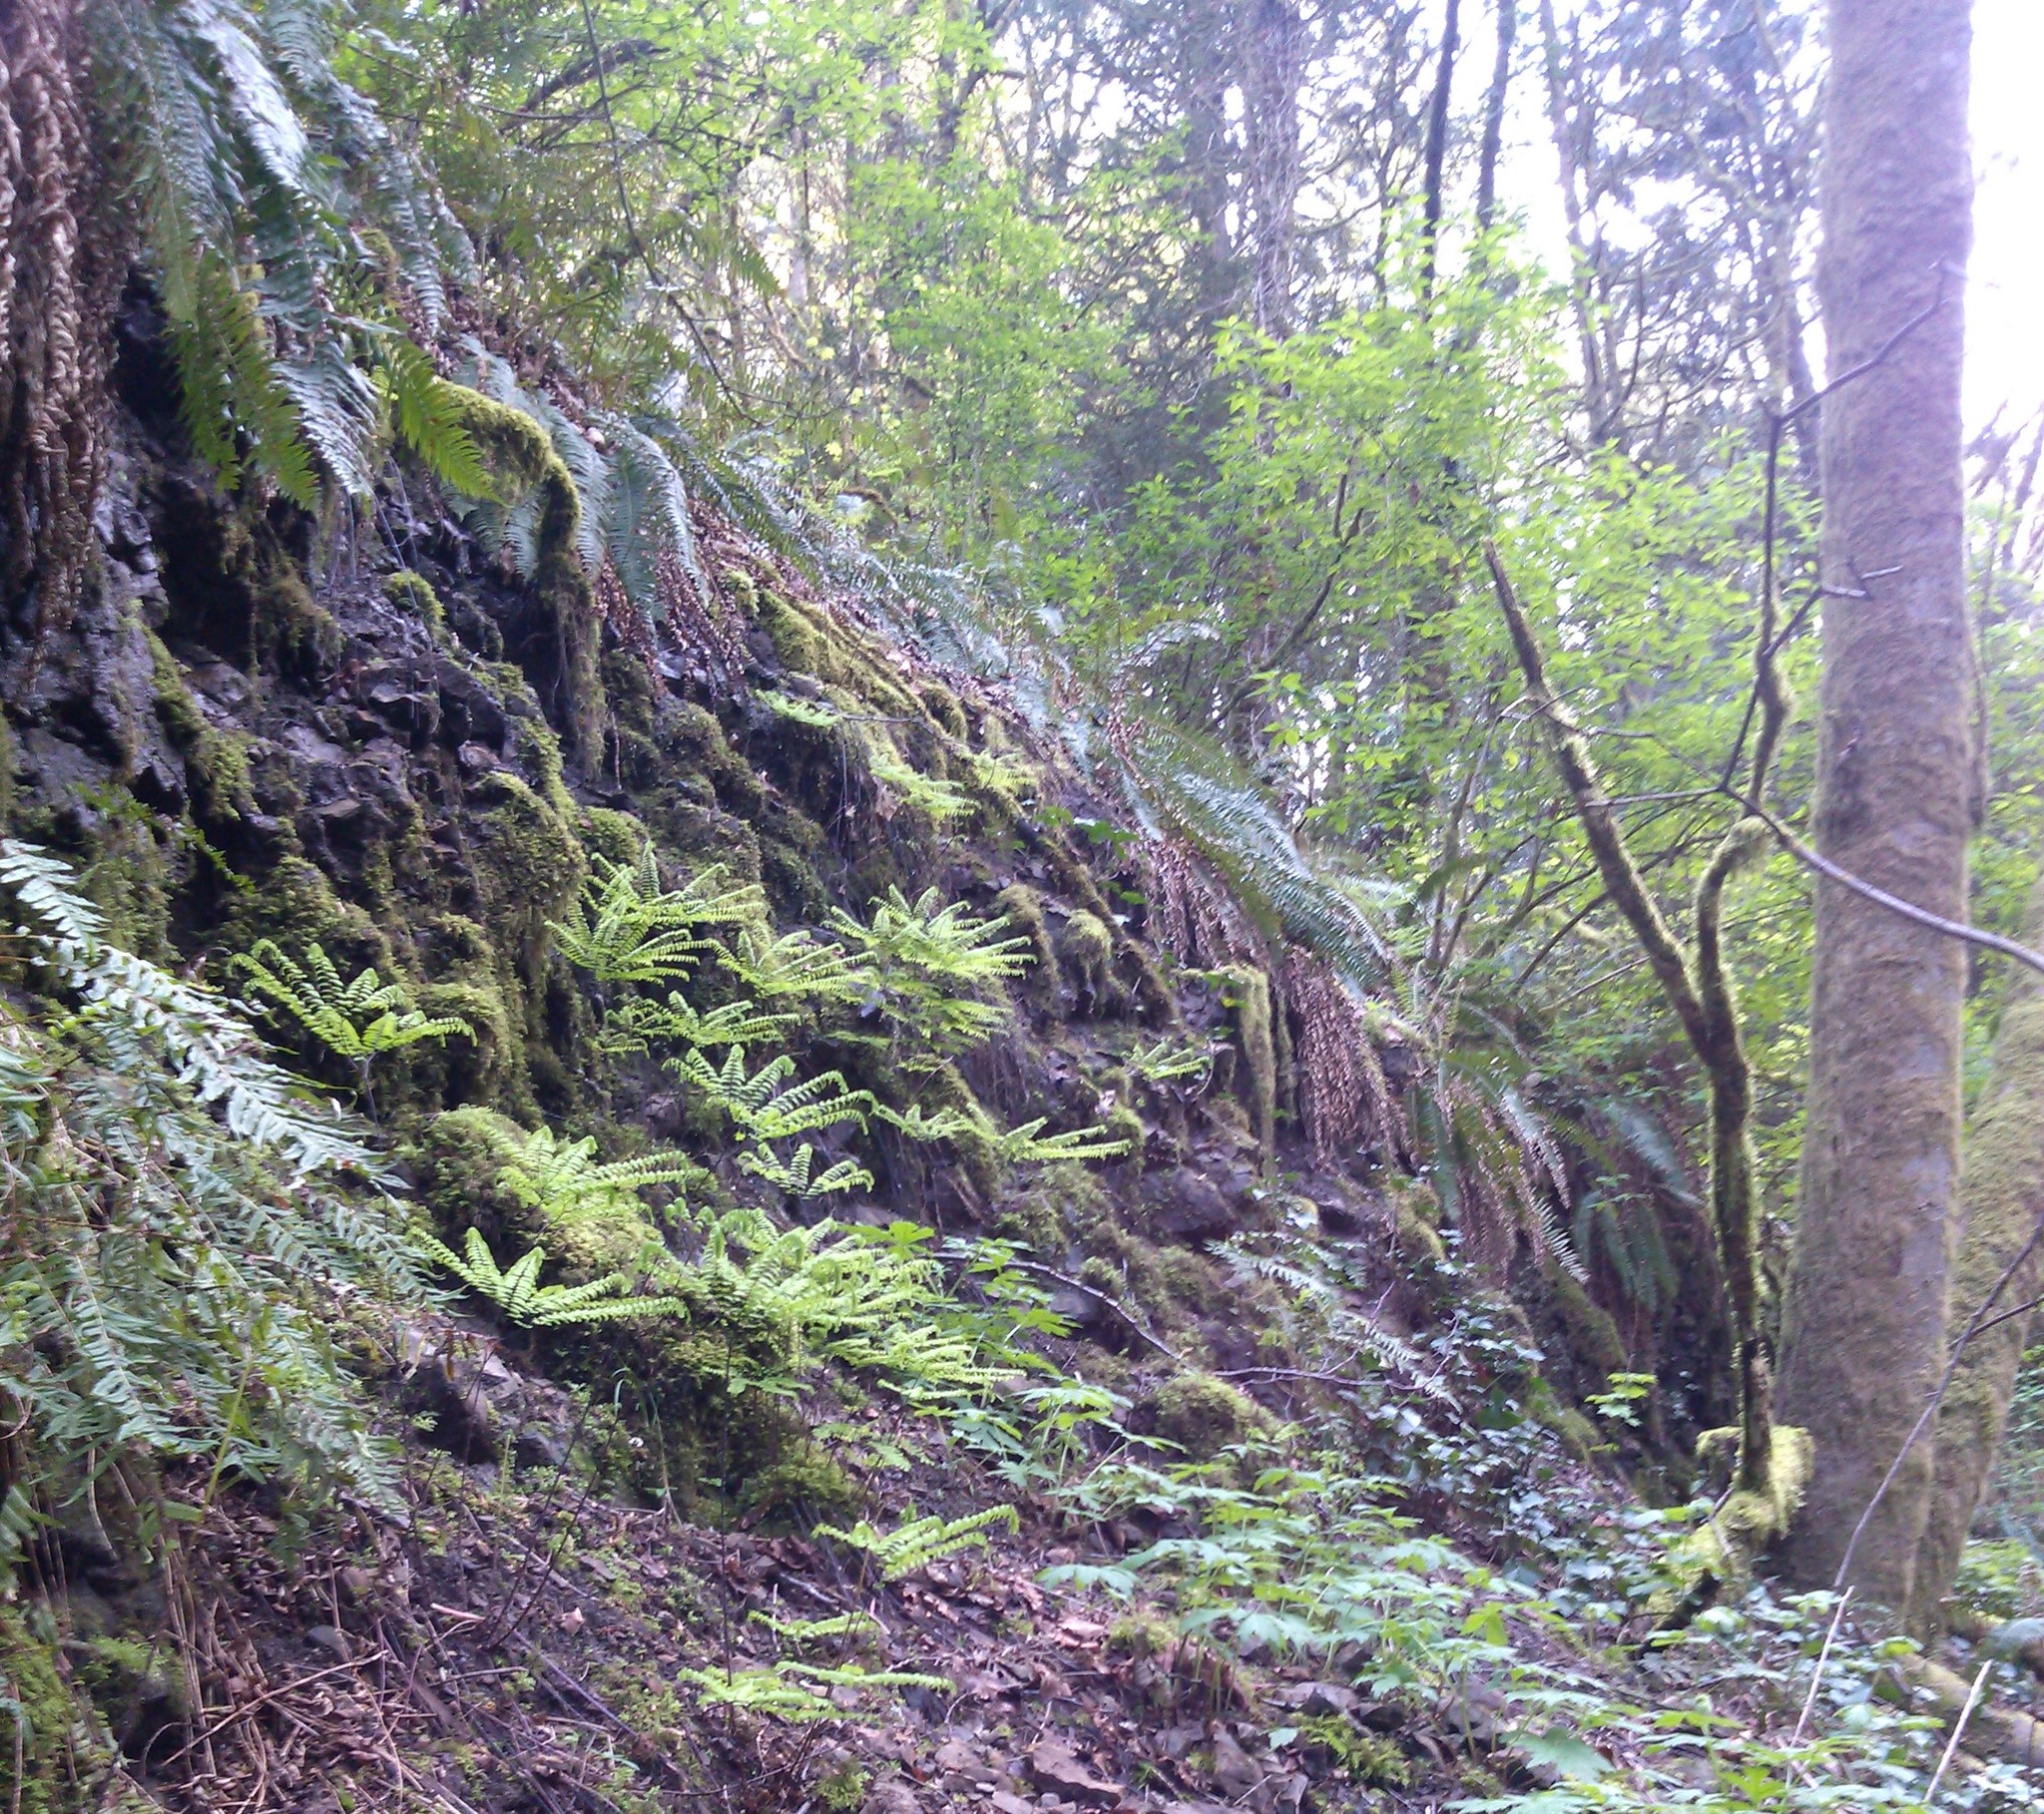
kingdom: Plantae
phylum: Tracheophyta
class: Polypodiopsida
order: Polypodiales
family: Pteridaceae
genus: Adiantum
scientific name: Adiantum aleuticum
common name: Aleutian maidenhair fern
